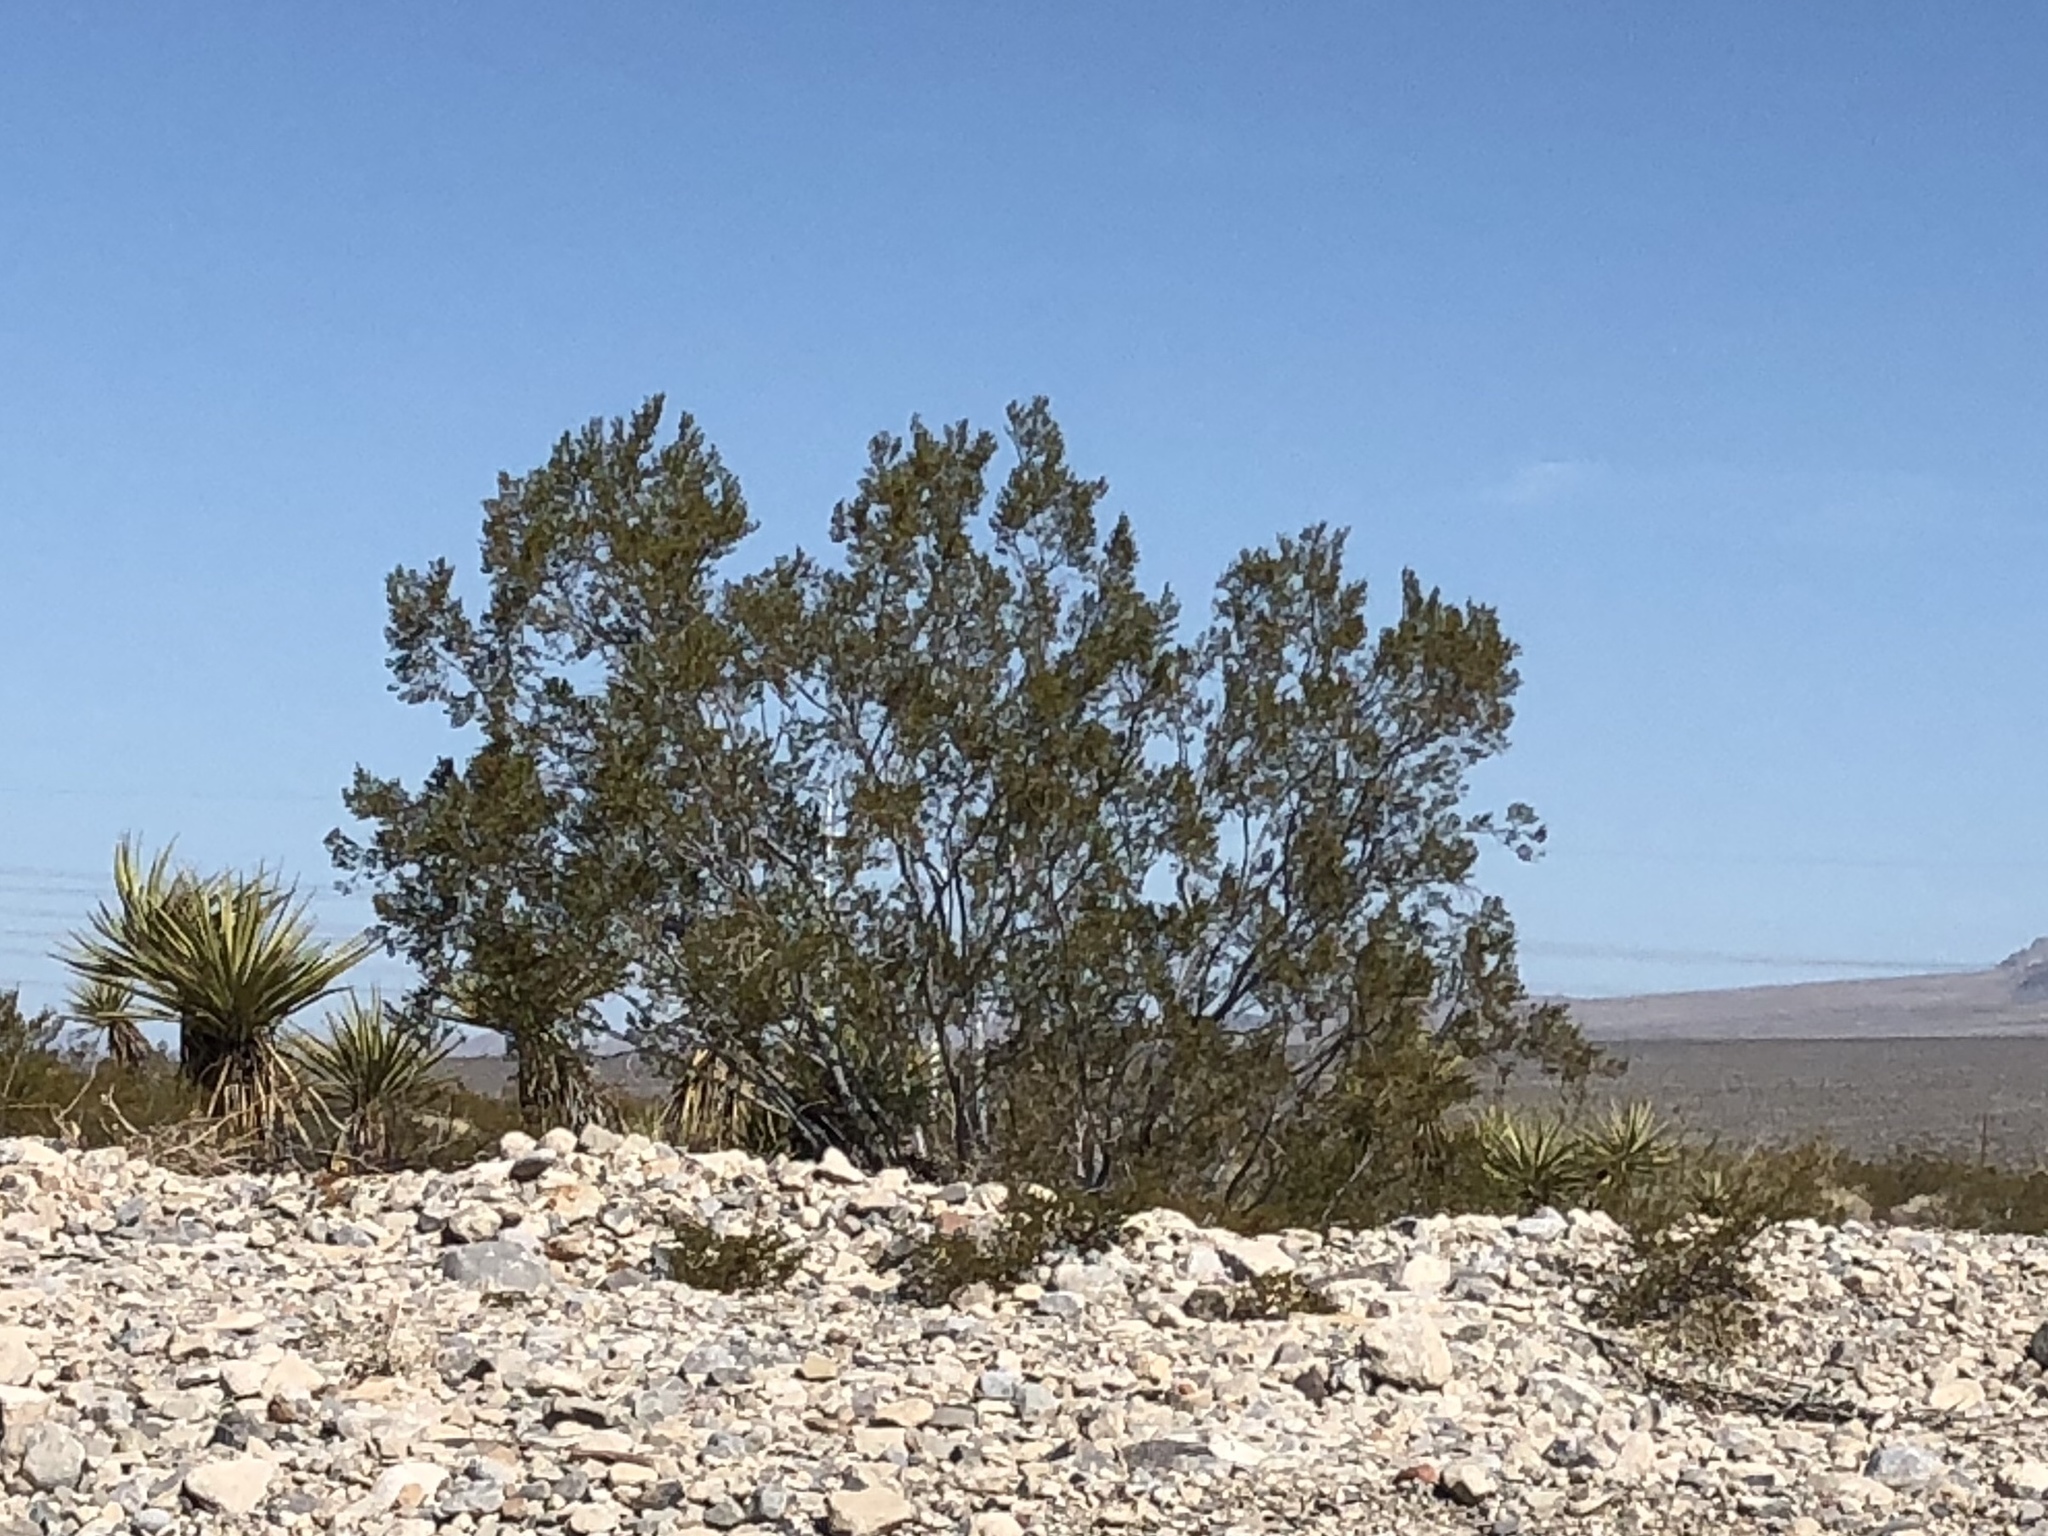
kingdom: Plantae
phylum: Tracheophyta
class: Magnoliopsida
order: Zygophyllales
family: Zygophyllaceae
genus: Larrea
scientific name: Larrea tridentata
